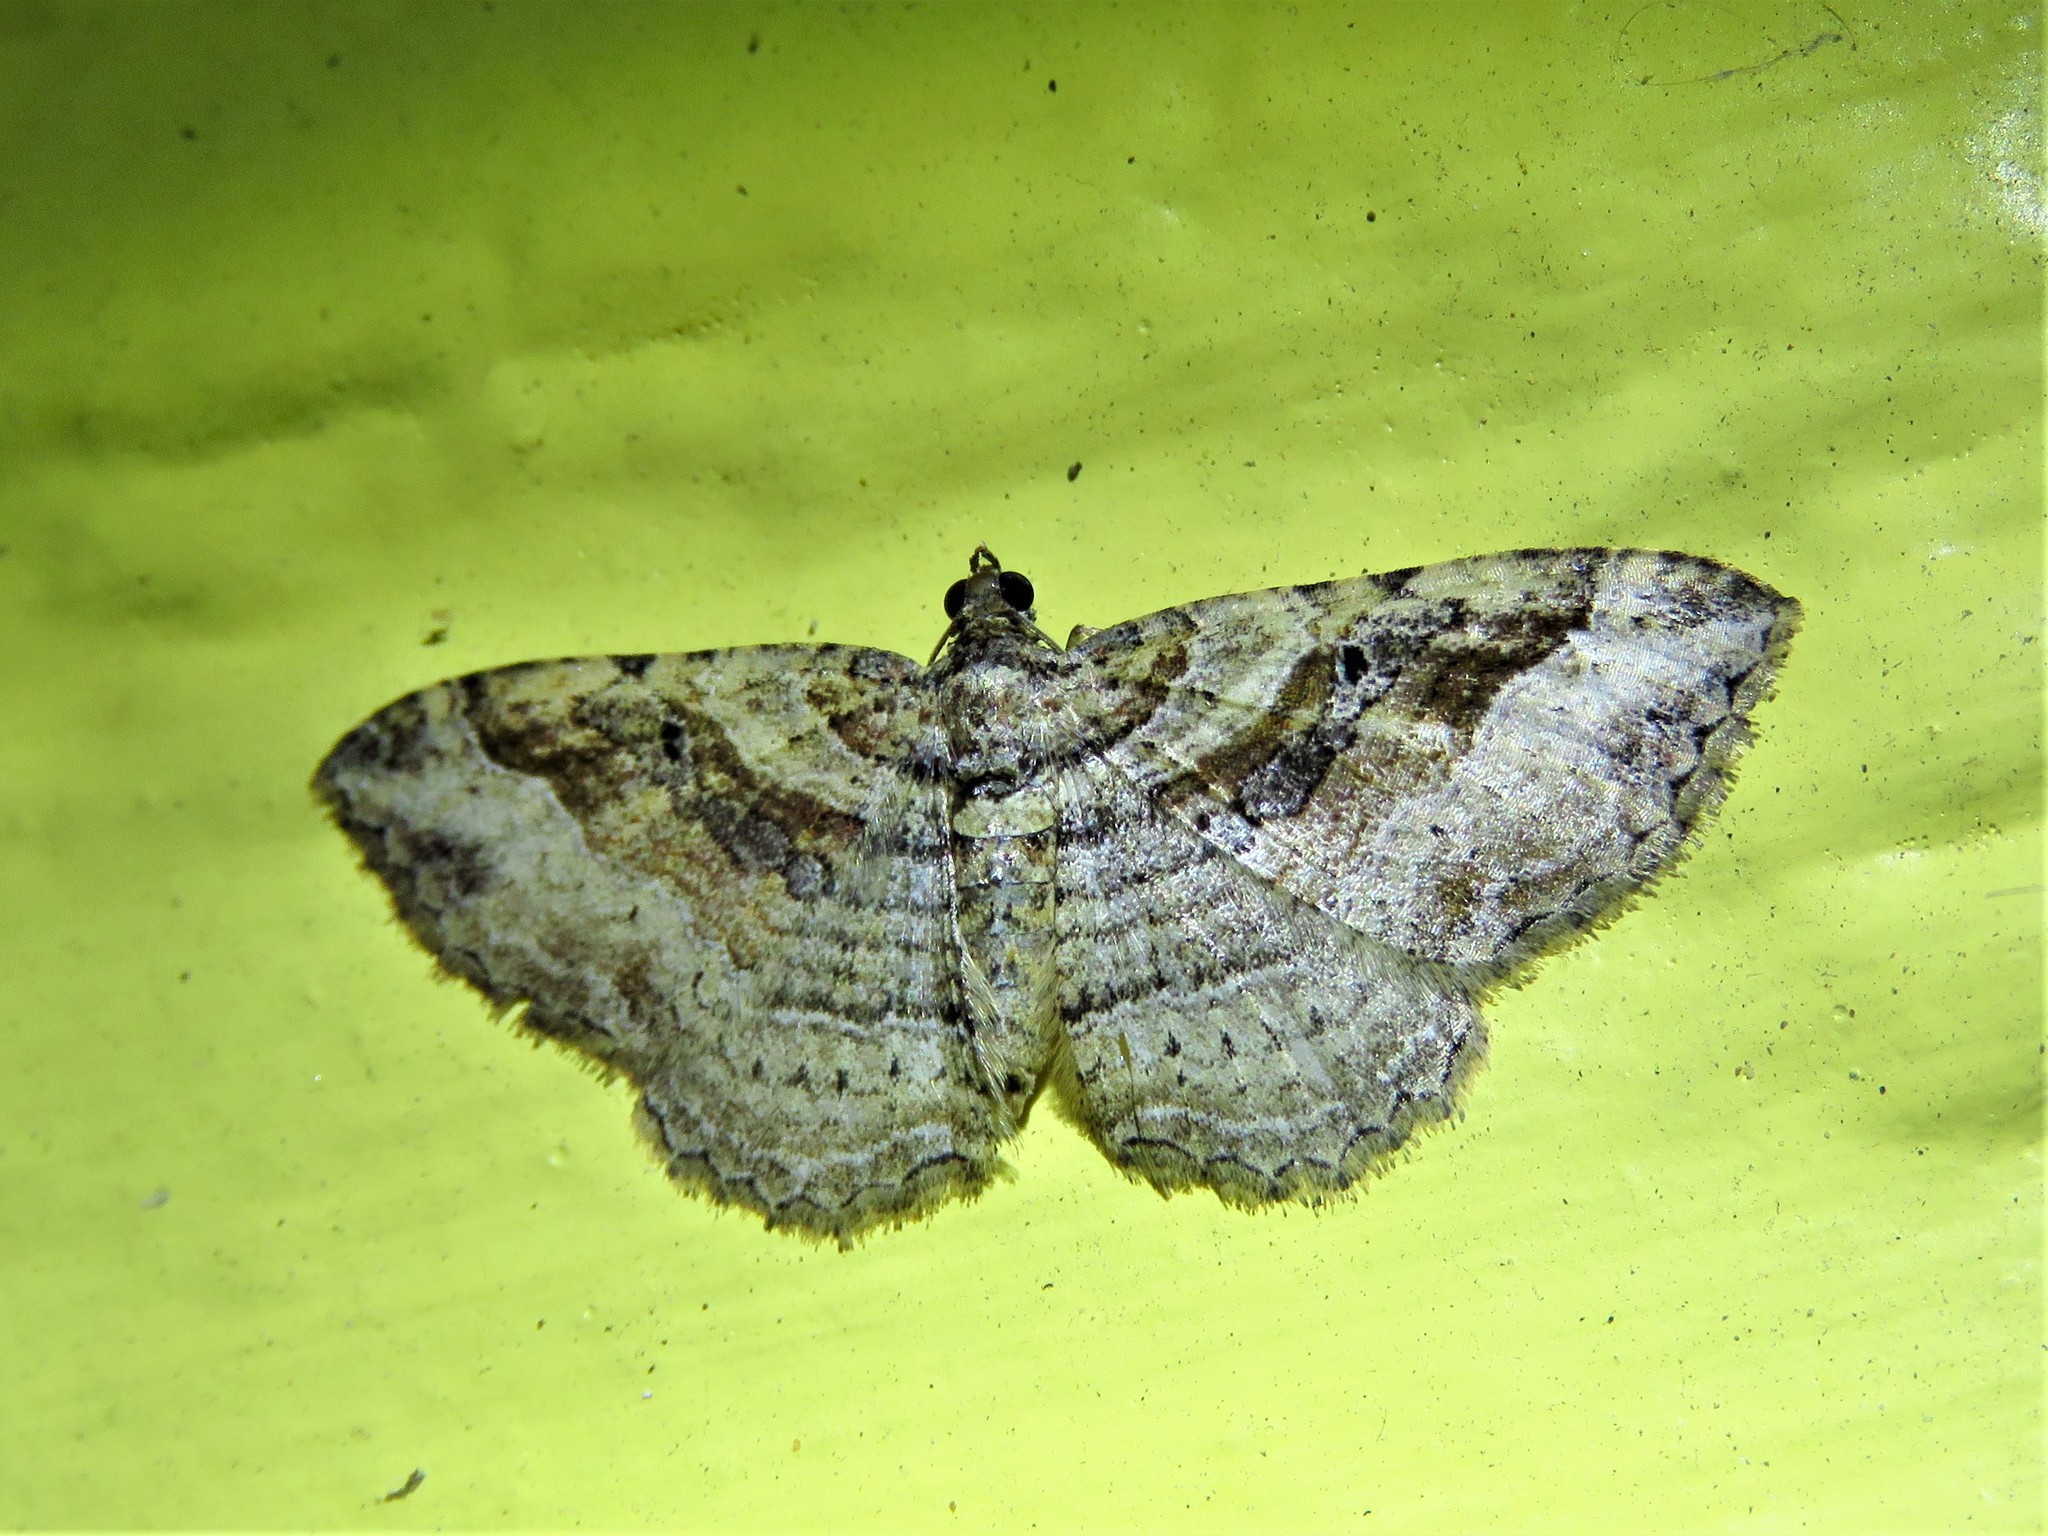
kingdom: Animalia
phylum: Arthropoda
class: Insecta
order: Lepidoptera
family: Geometridae
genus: Costaconvexa
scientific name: Costaconvexa centrostrigaria
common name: Bent-line carpet
